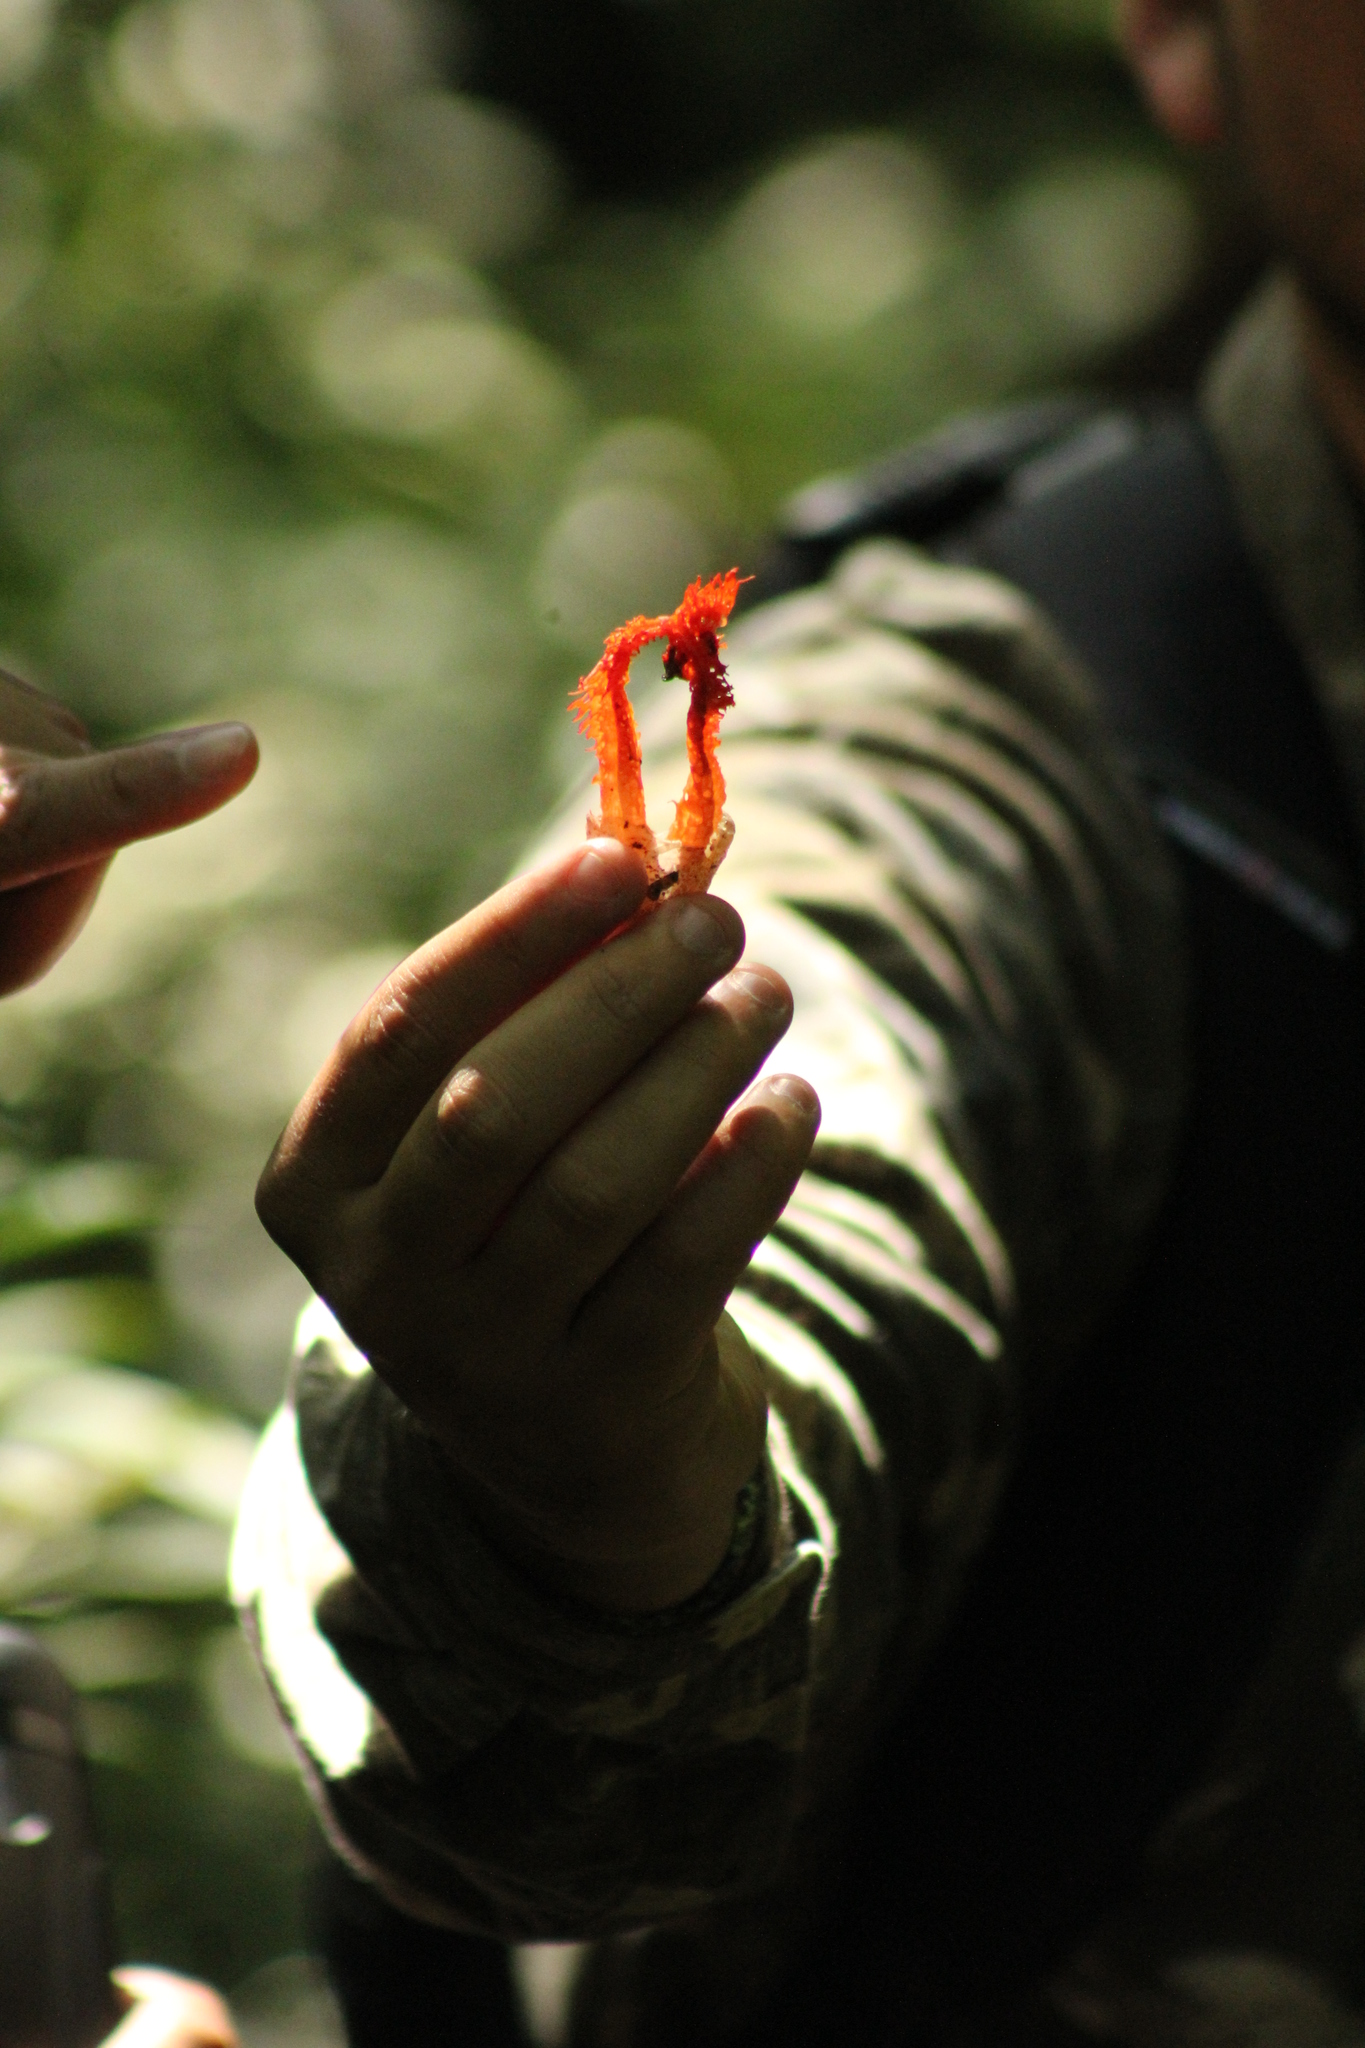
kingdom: Fungi
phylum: Basidiomycota
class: Agaricomycetes
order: Phallales
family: Phallaceae
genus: Laternea
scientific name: Laternea pusilla
